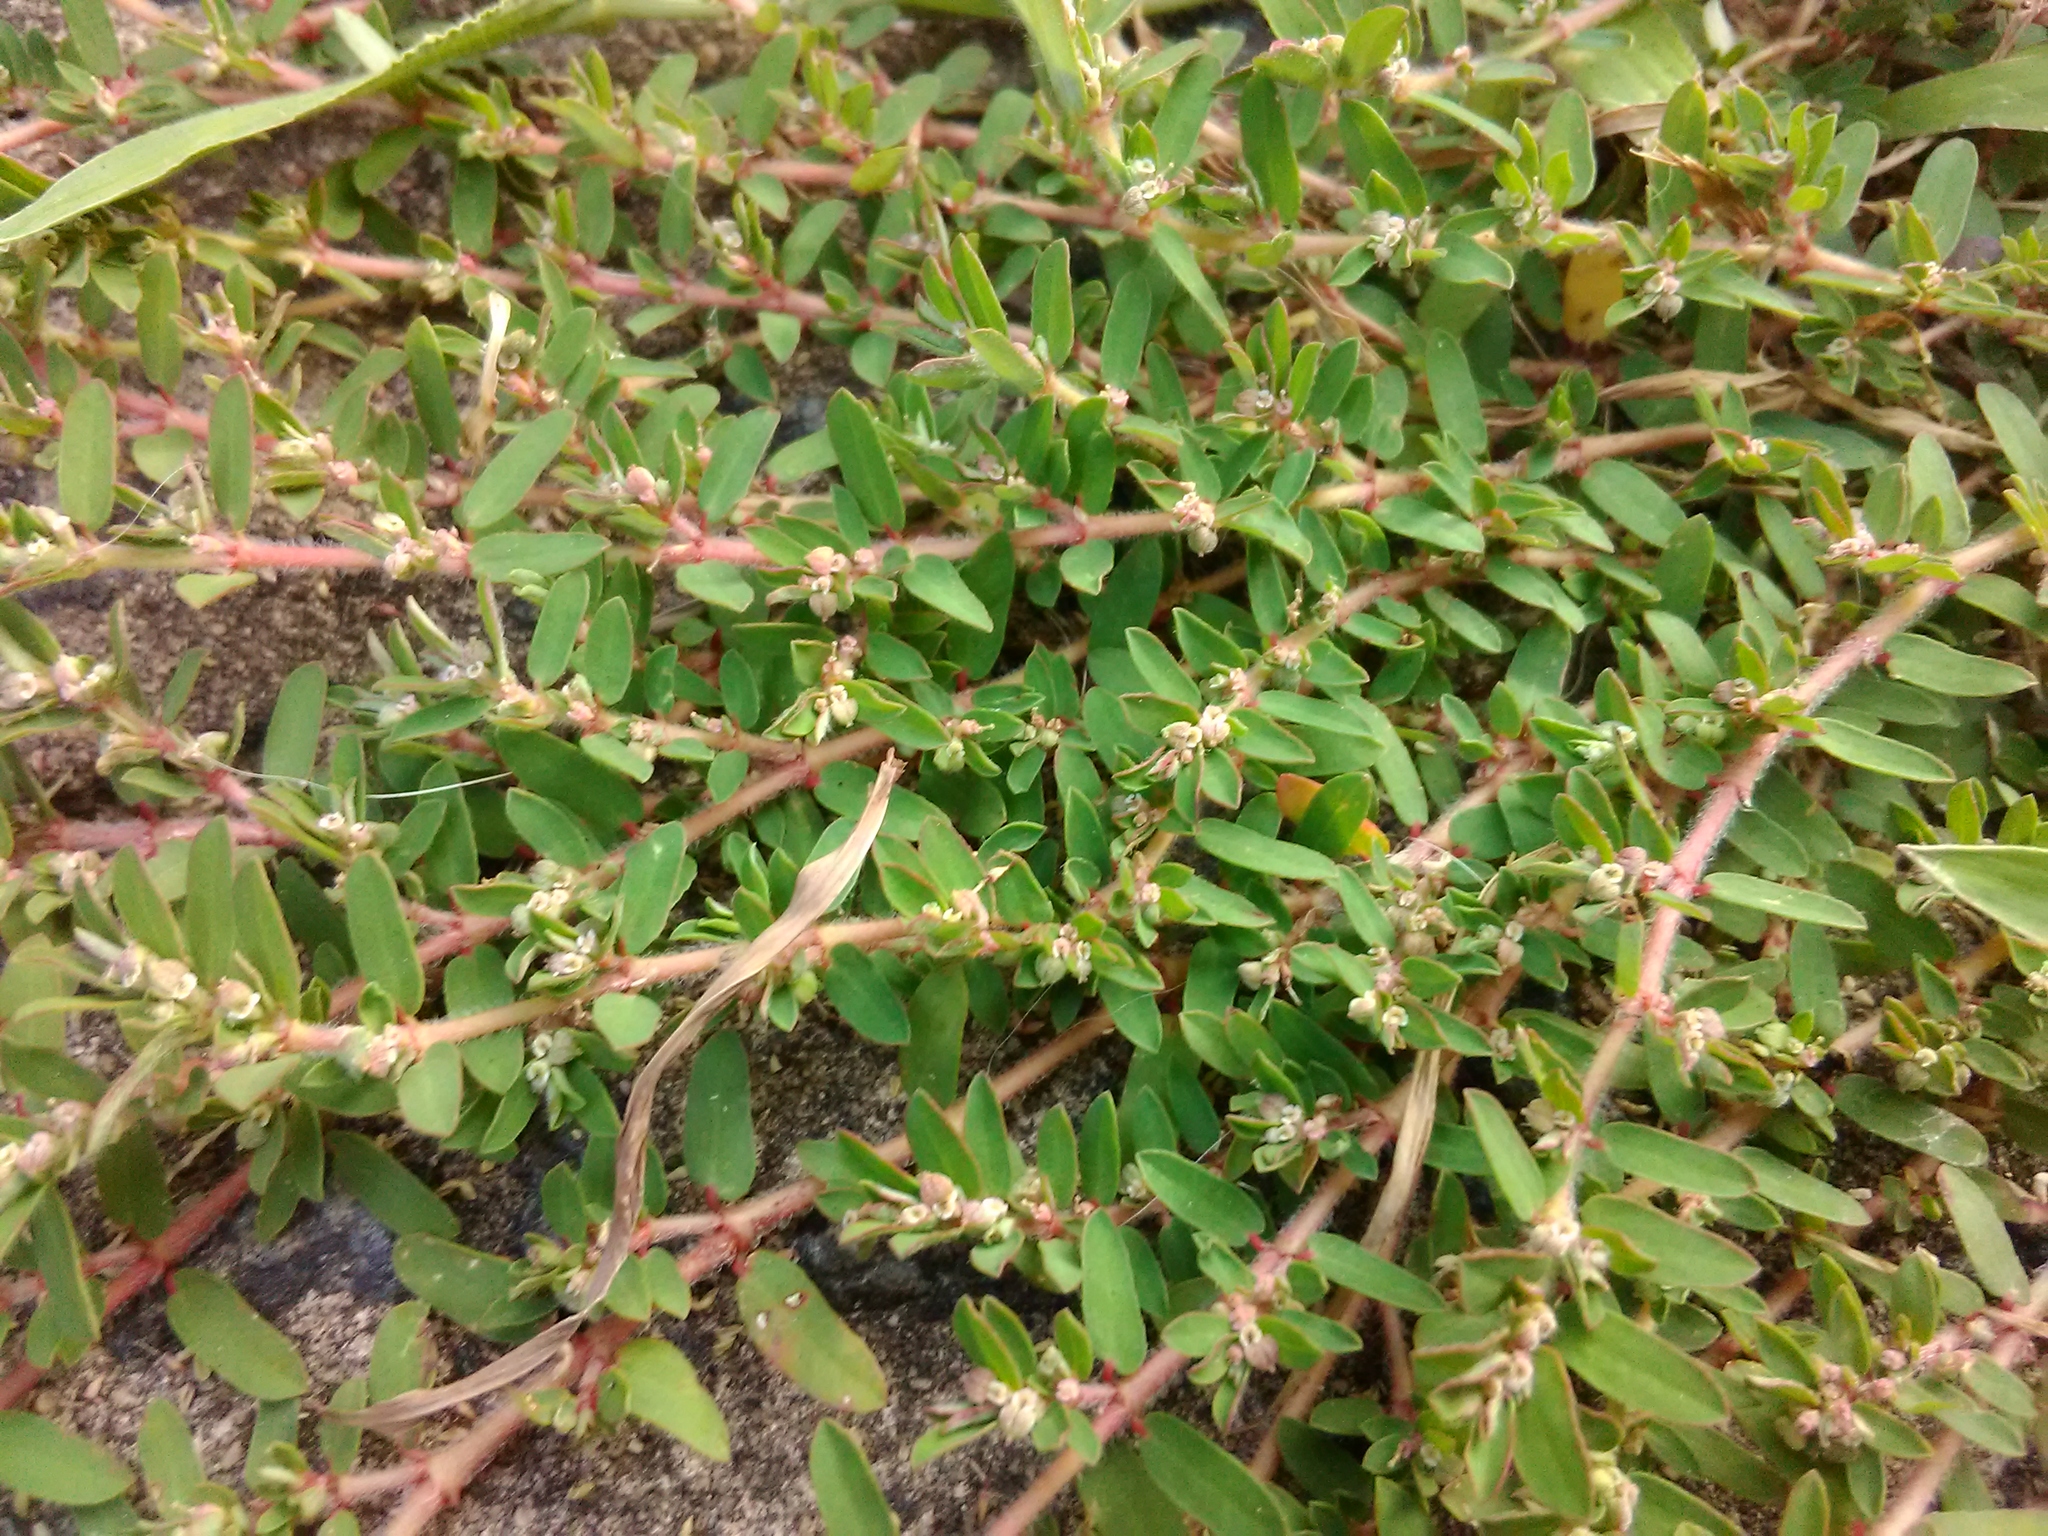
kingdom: Plantae
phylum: Tracheophyta
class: Magnoliopsida
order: Malpighiales
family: Euphorbiaceae
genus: Euphorbia
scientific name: Euphorbia maculata
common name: Spotted spurge
